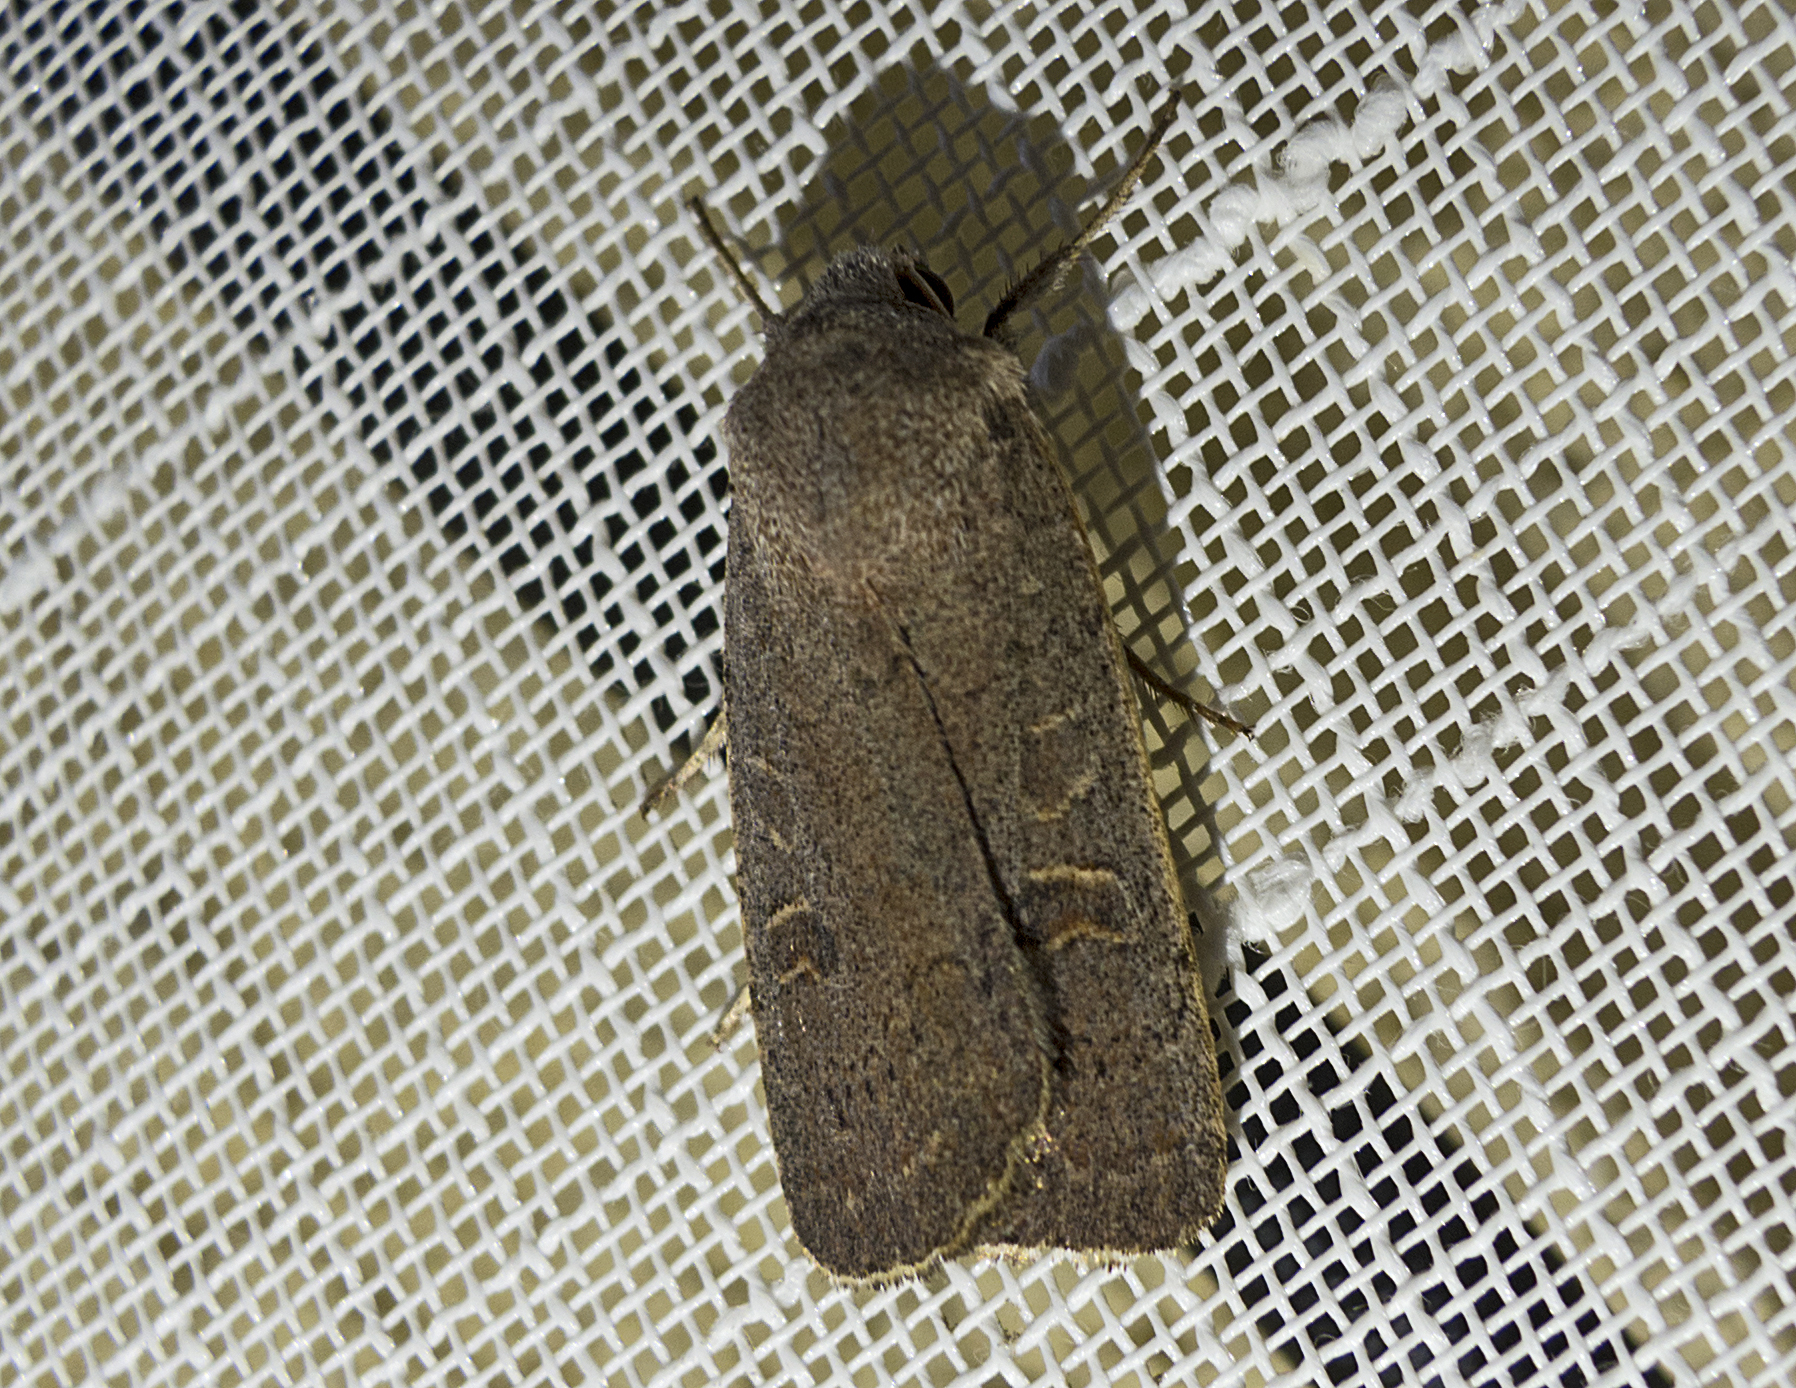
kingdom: Animalia
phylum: Arthropoda
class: Insecta
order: Lepidoptera
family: Noctuidae
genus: Xestia
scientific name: Xestia
